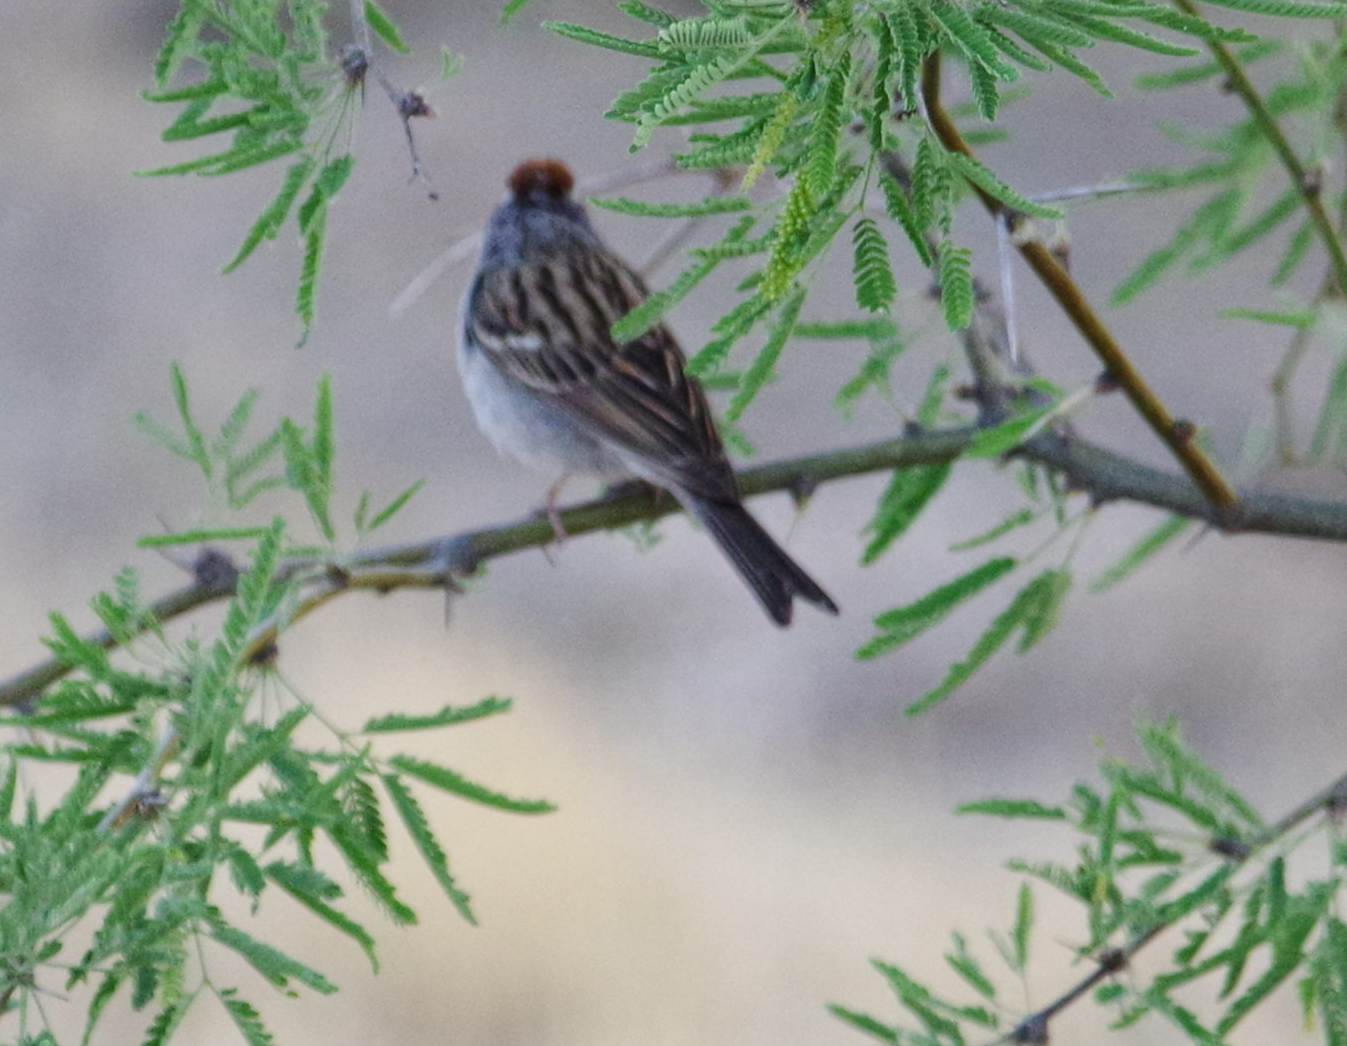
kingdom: Animalia
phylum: Chordata
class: Aves
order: Passeriformes
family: Passerellidae
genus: Spizella
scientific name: Spizella passerina
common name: Chipping sparrow
